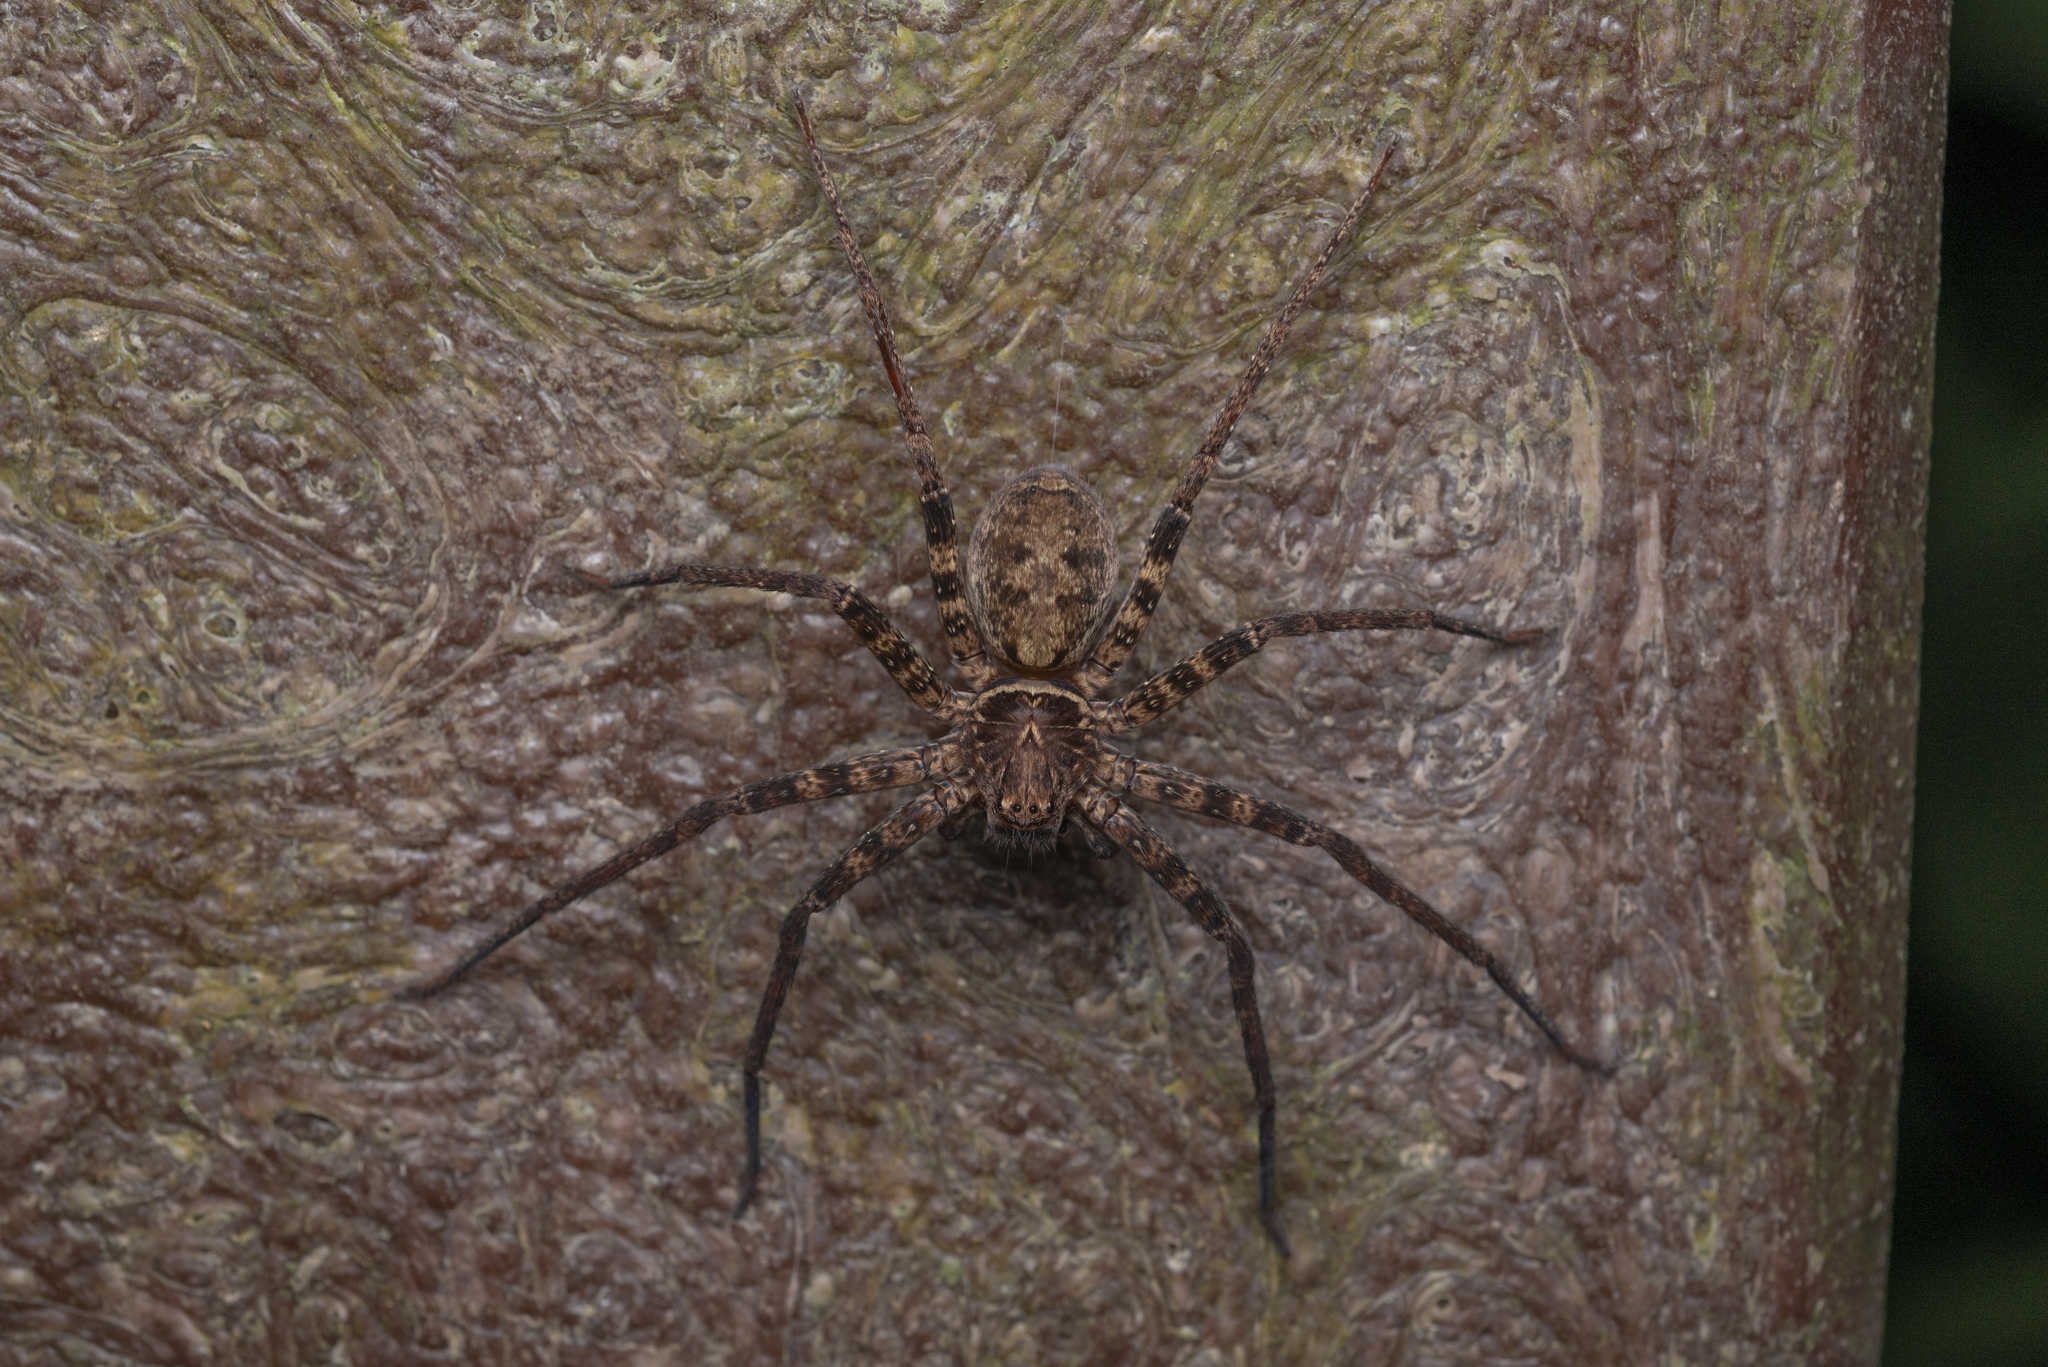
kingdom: Animalia
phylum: Arthropoda
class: Arachnida
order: Araneae
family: Sparassidae
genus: Heteropoda
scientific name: Heteropoda amphora
